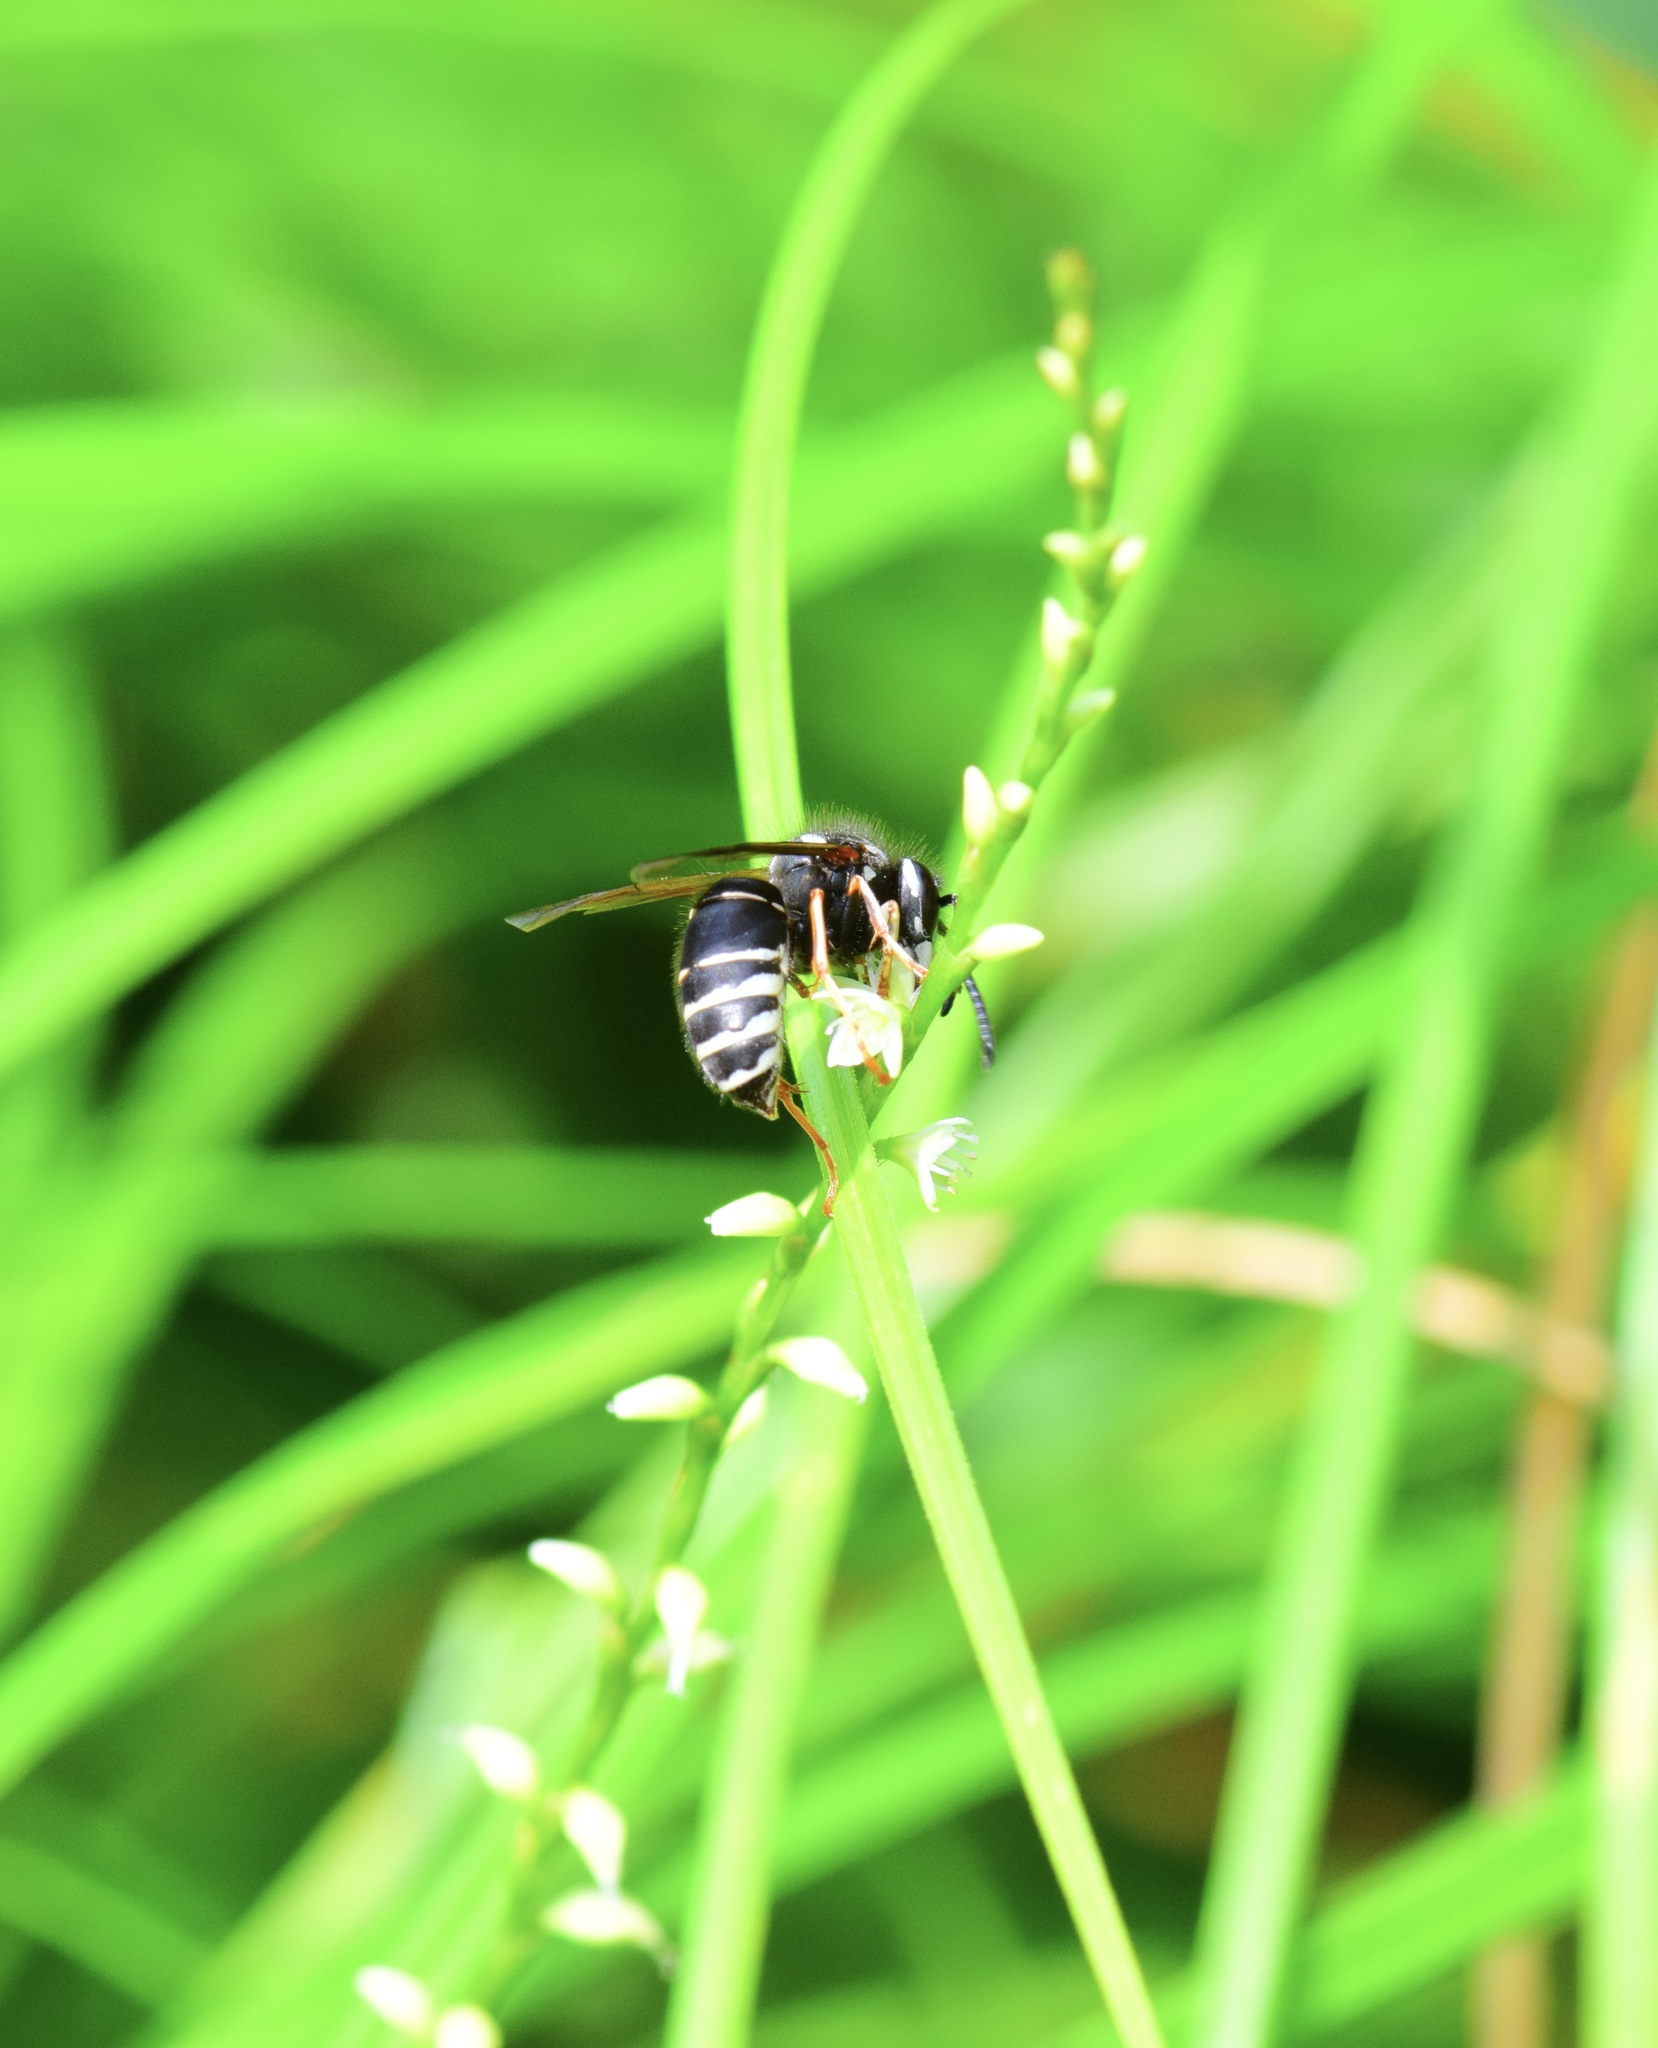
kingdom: Animalia
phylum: Arthropoda
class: Insecta
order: Hymenoptera
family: Vespidae
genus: Vespula
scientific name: Vespula consobrina
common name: Blackjacket
